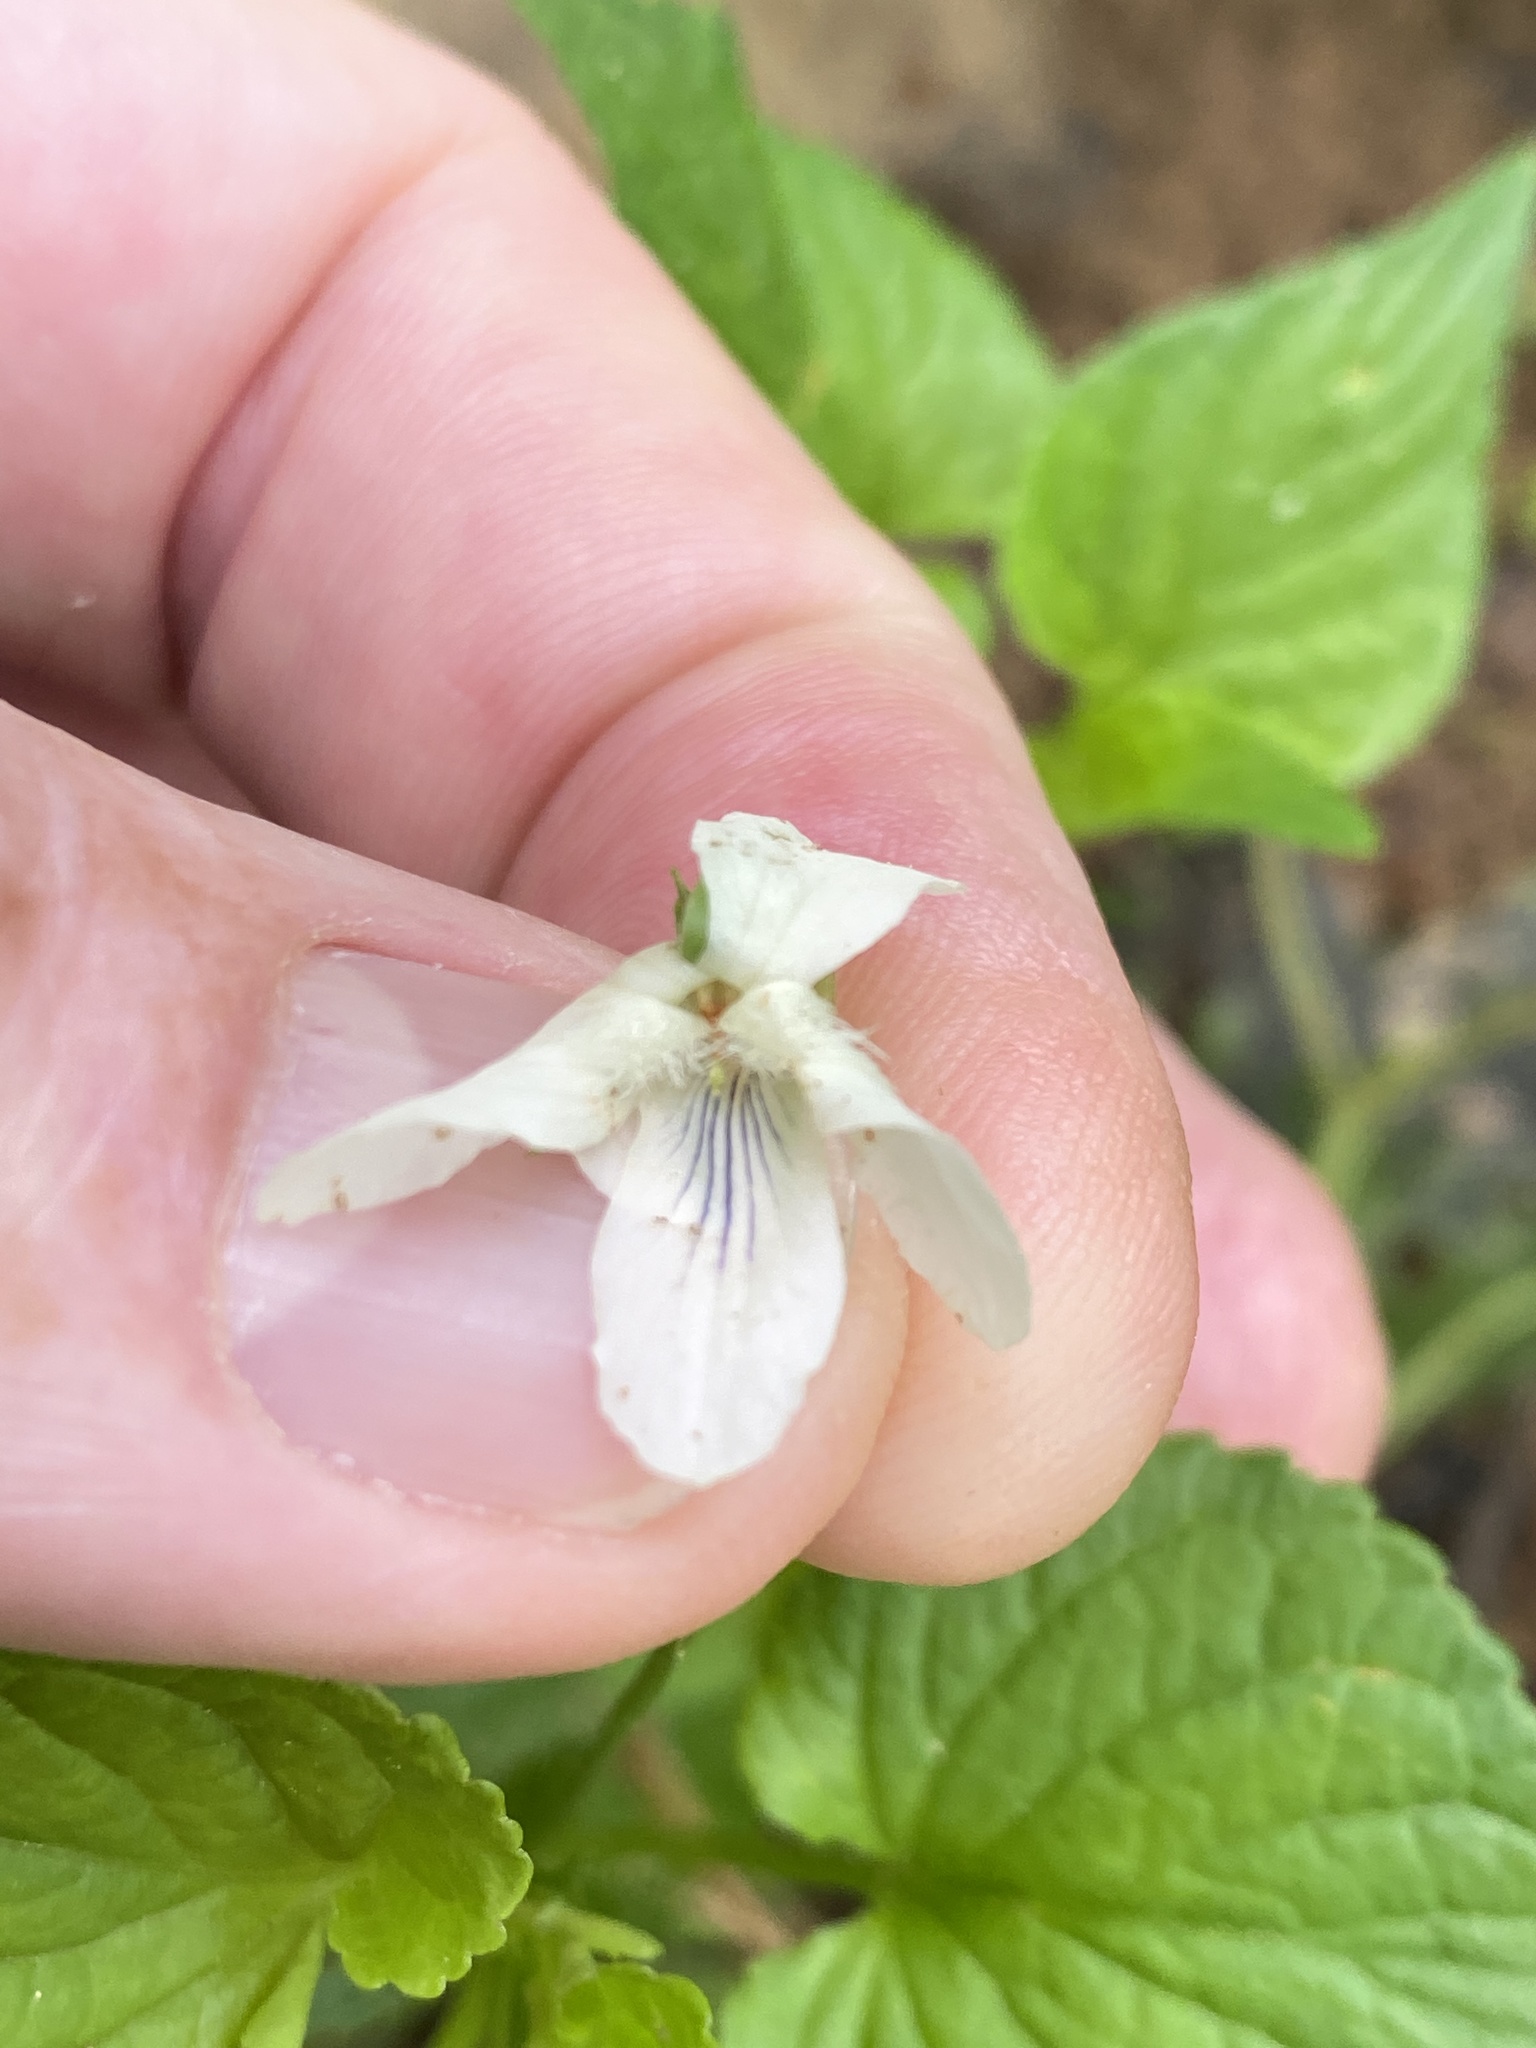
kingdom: Plantae
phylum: Tracheophyta
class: Magnoliopsida
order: Malpighiales
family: Violaceae
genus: Viola
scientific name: Viola striata
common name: Cream violet
